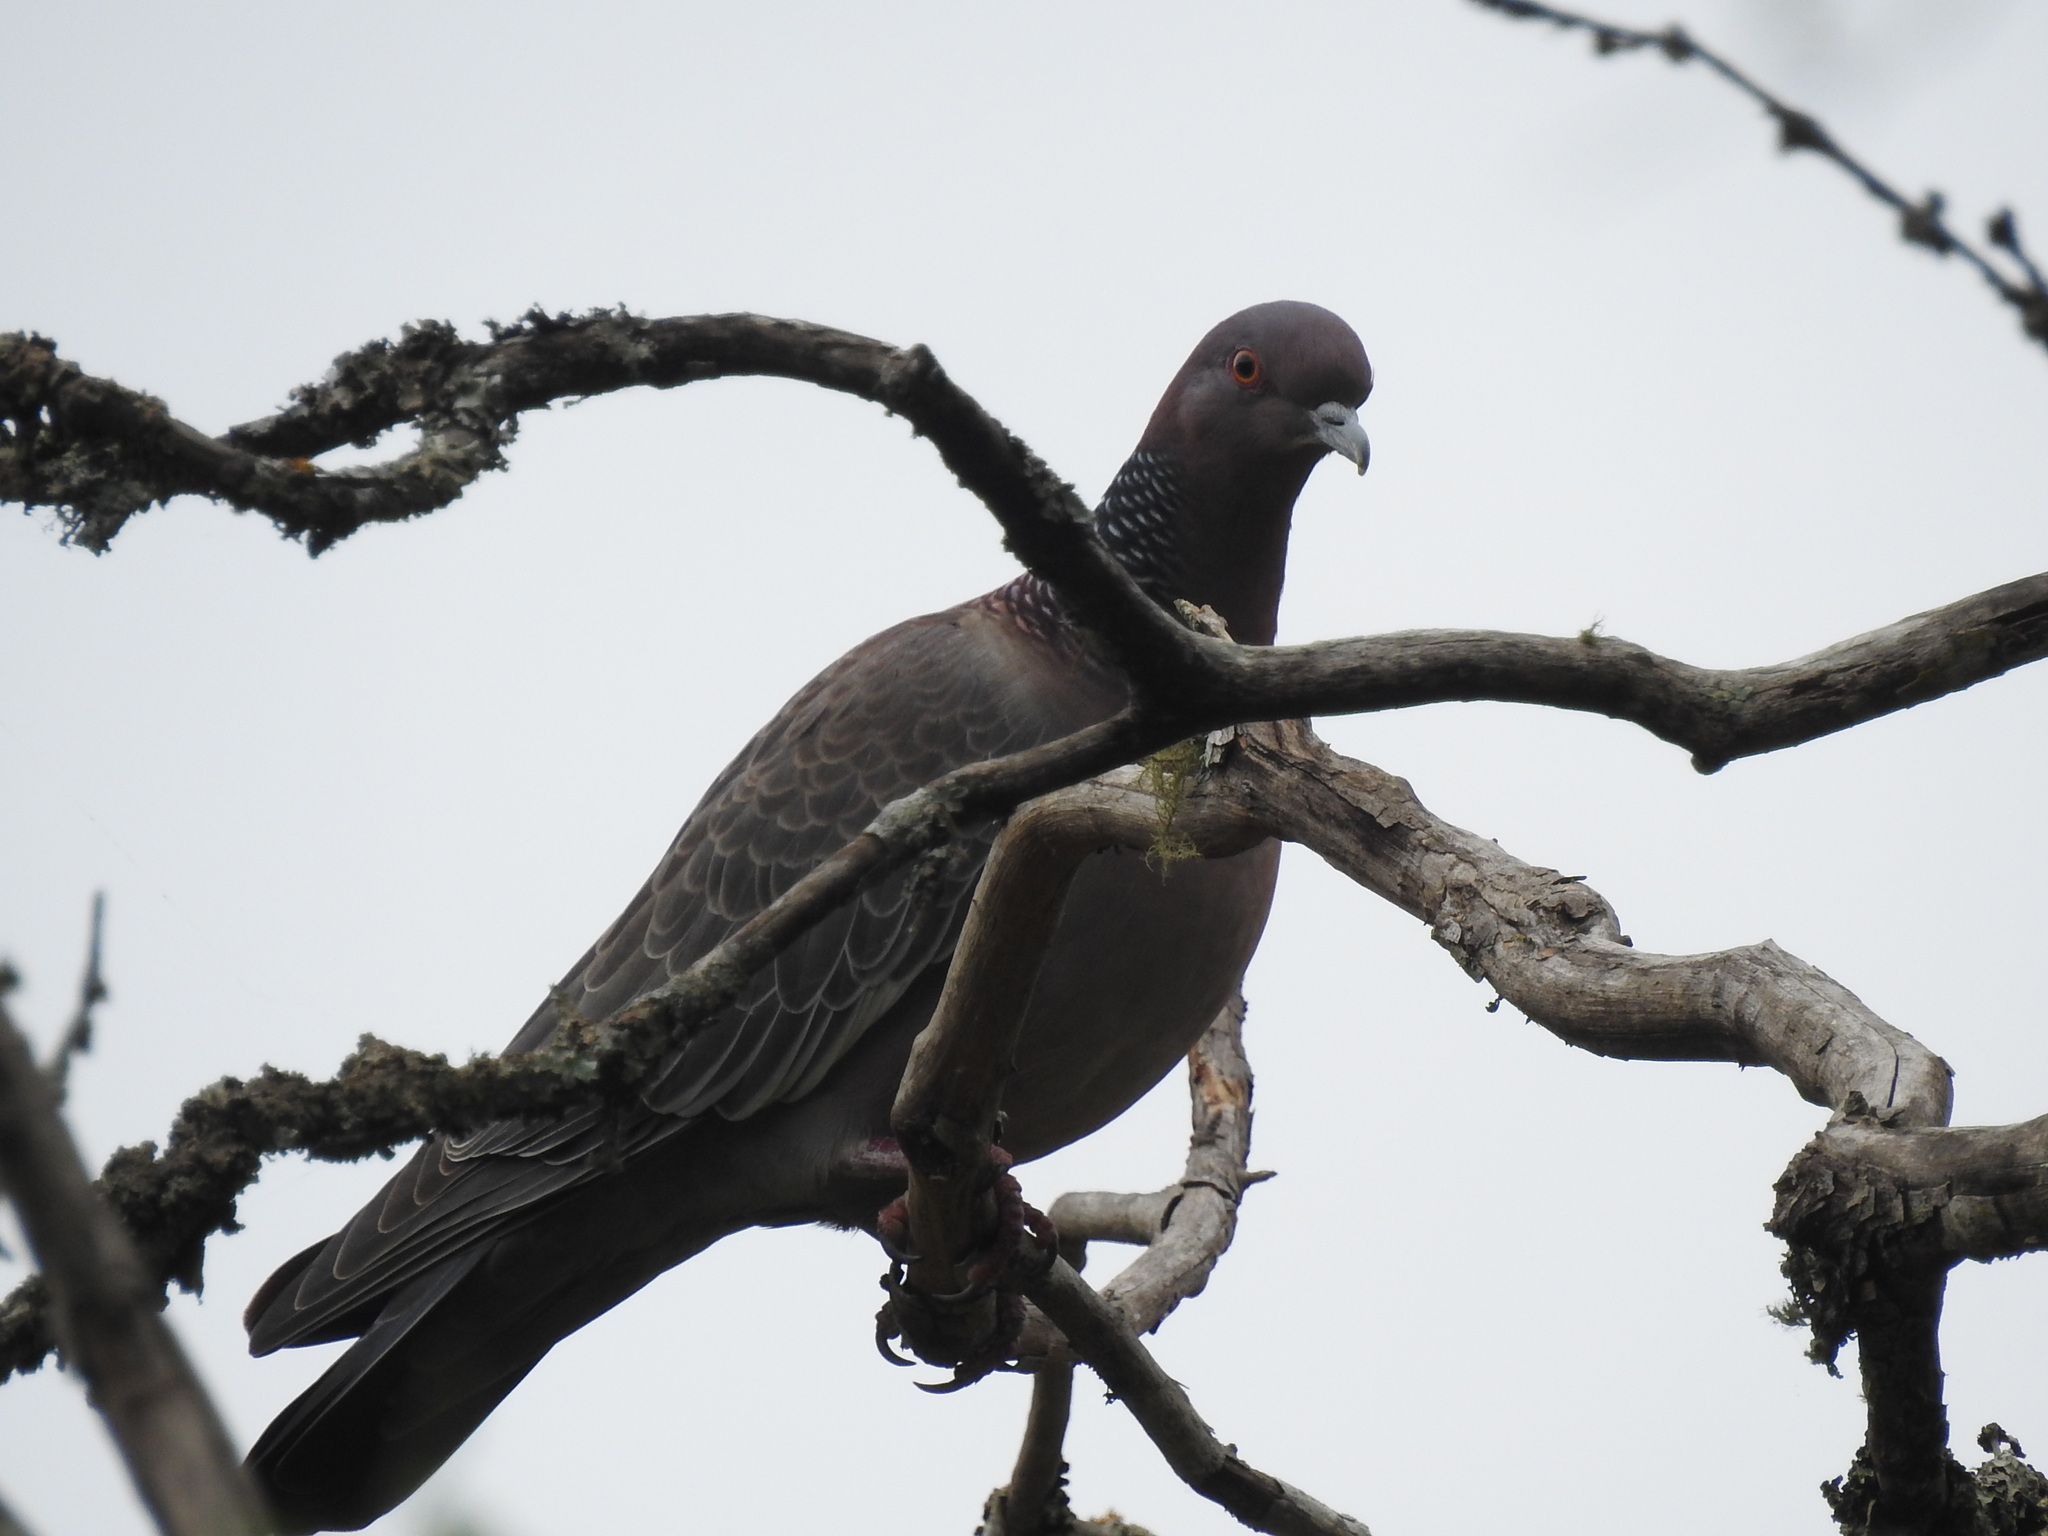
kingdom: Animalia
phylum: Chordata
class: Aves
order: Columbiformes
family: Columbidae
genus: Patagioenas
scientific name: Patagioenas picazuro
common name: Picazuro pigeon
